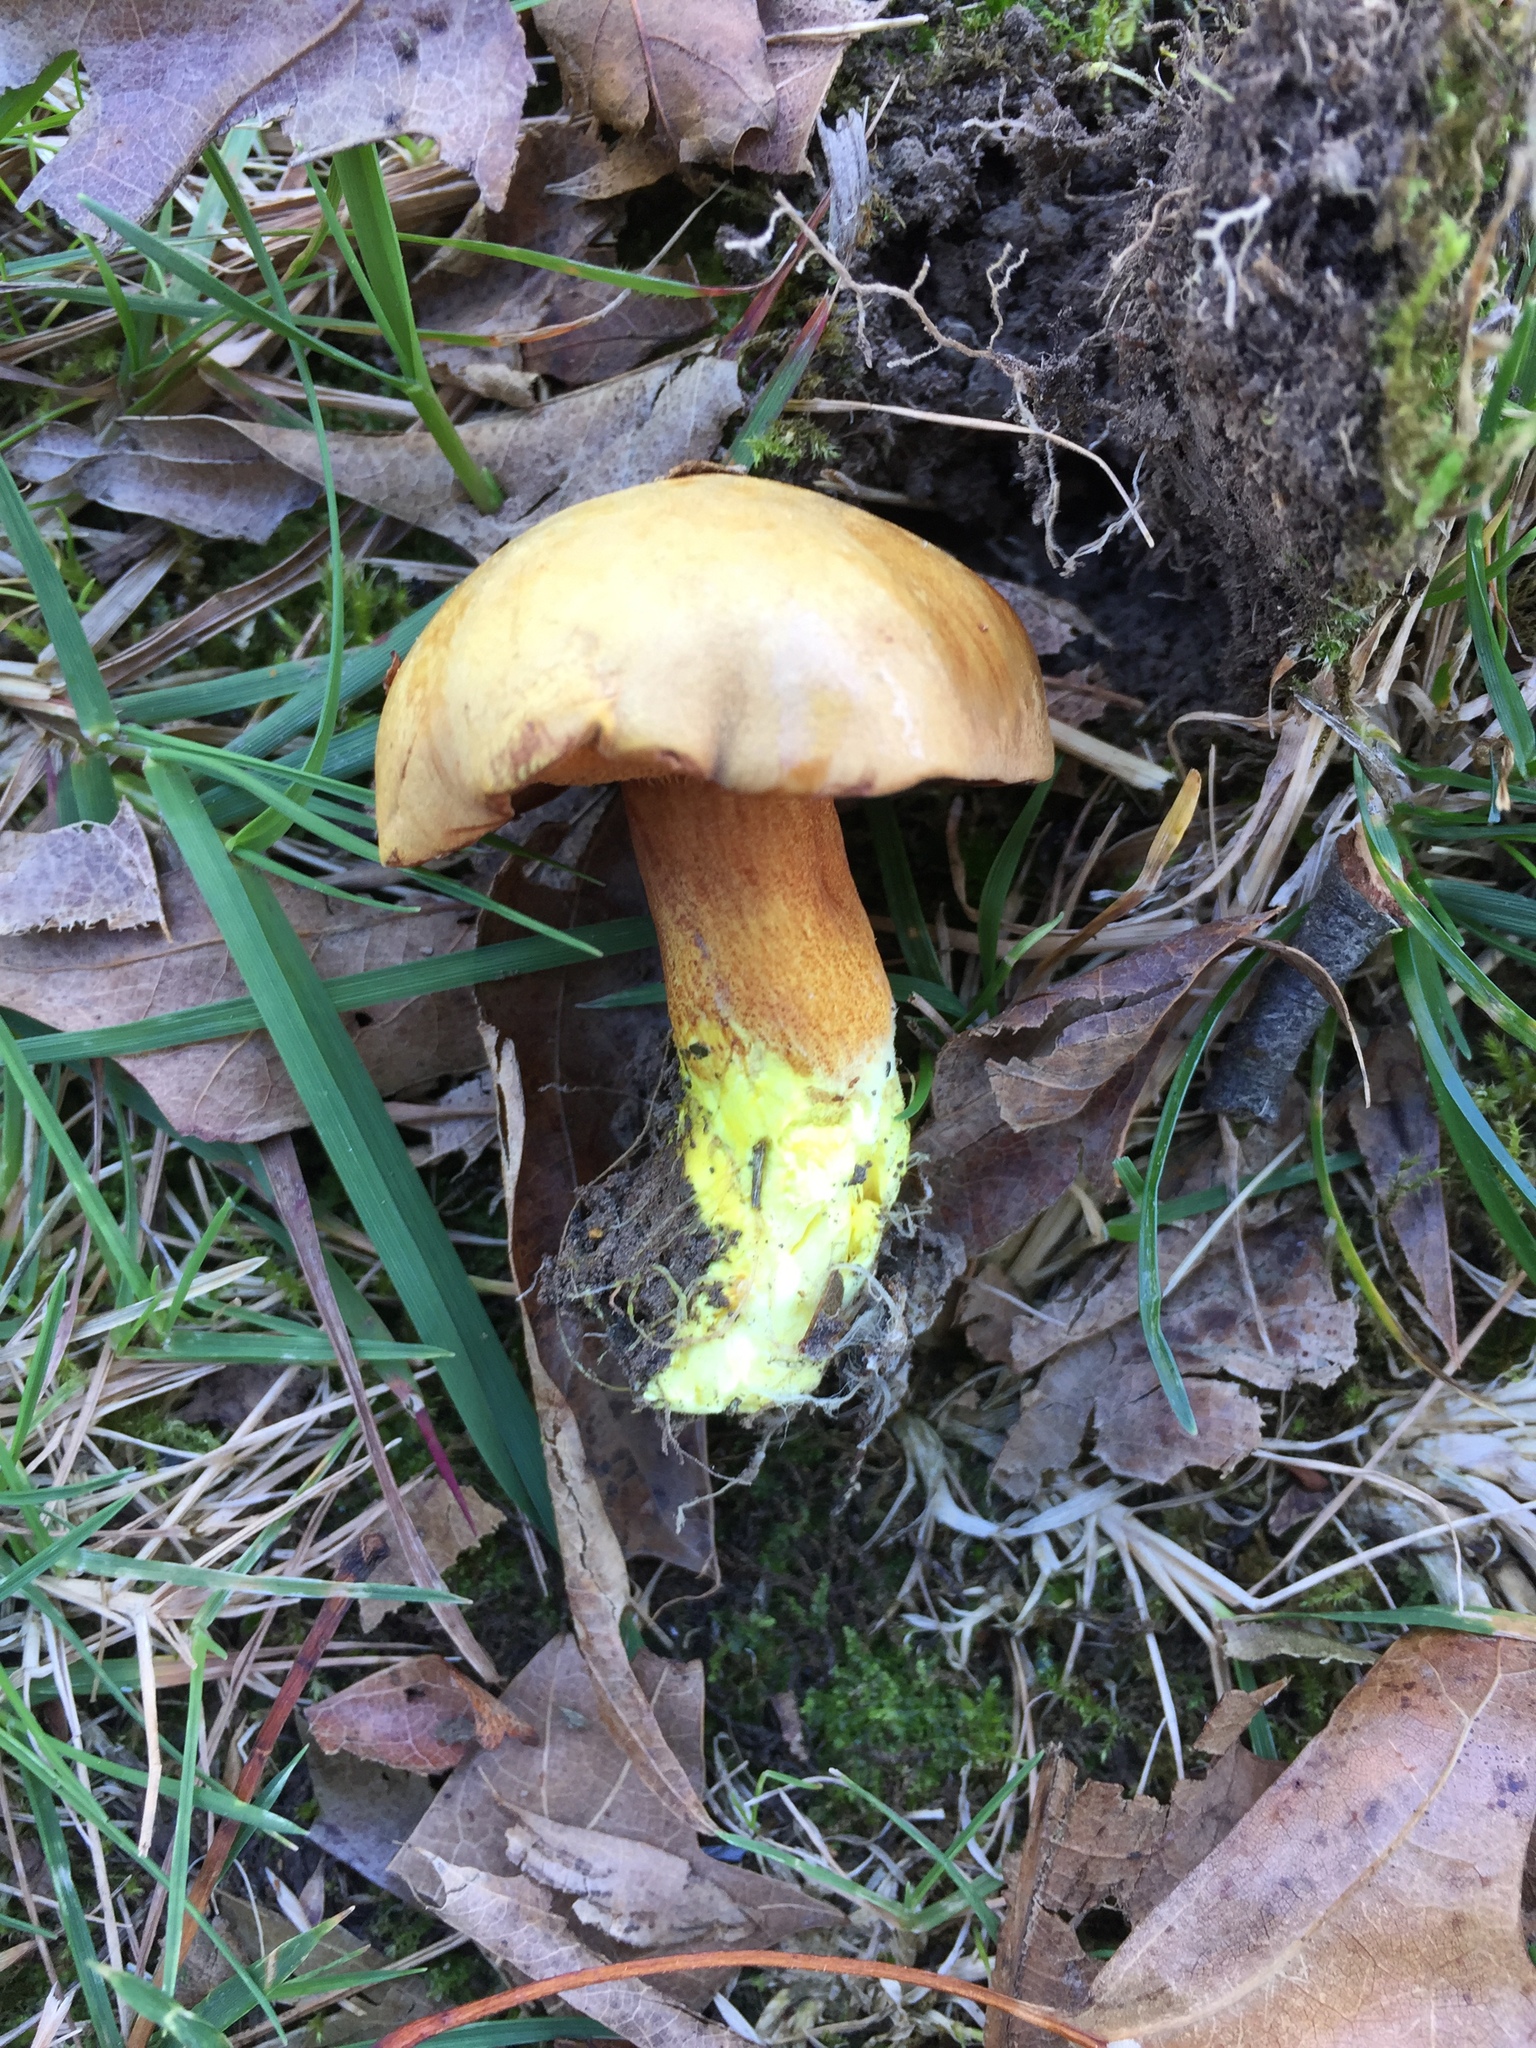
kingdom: Fungi
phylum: Basidiomycota
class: Agaricomycetes
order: Boletales
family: Boletaceae
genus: Chalciporus
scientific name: Chalciporus piperatus
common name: Peppery bolete
